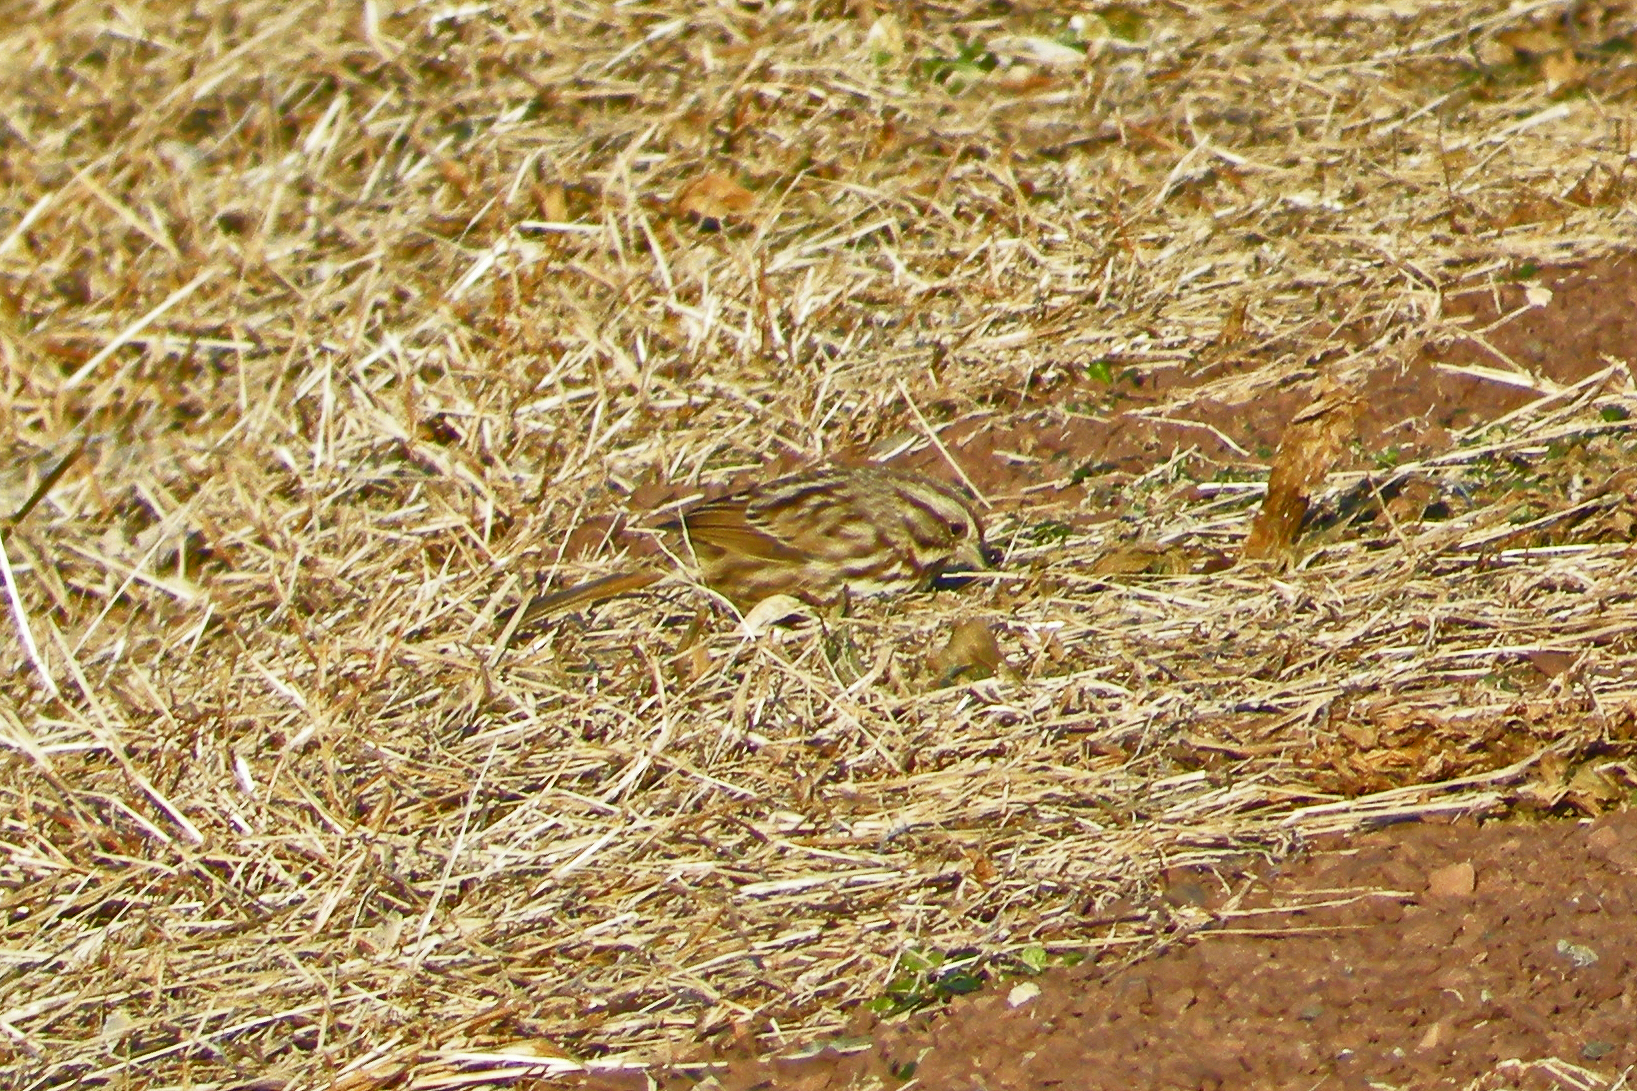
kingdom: Animalia
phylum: Chordata
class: Aves
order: Passeriformes
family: Passerellidae
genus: Melospiza
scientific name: Melospiza melodia
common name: Song sparrow
